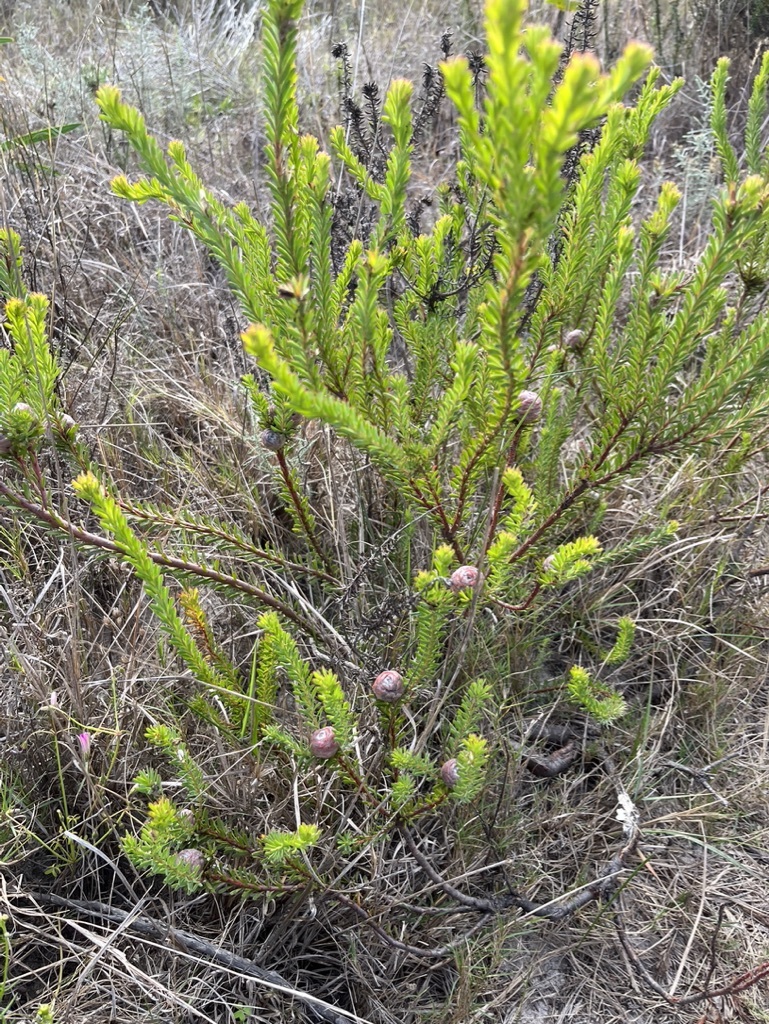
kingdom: Plantae
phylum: Tracheophyta
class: Magnoliopsida
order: Proteales
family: Proteaceae
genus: Leucadendron
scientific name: Leucadendron linifolium
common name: Line-leaf conebush
